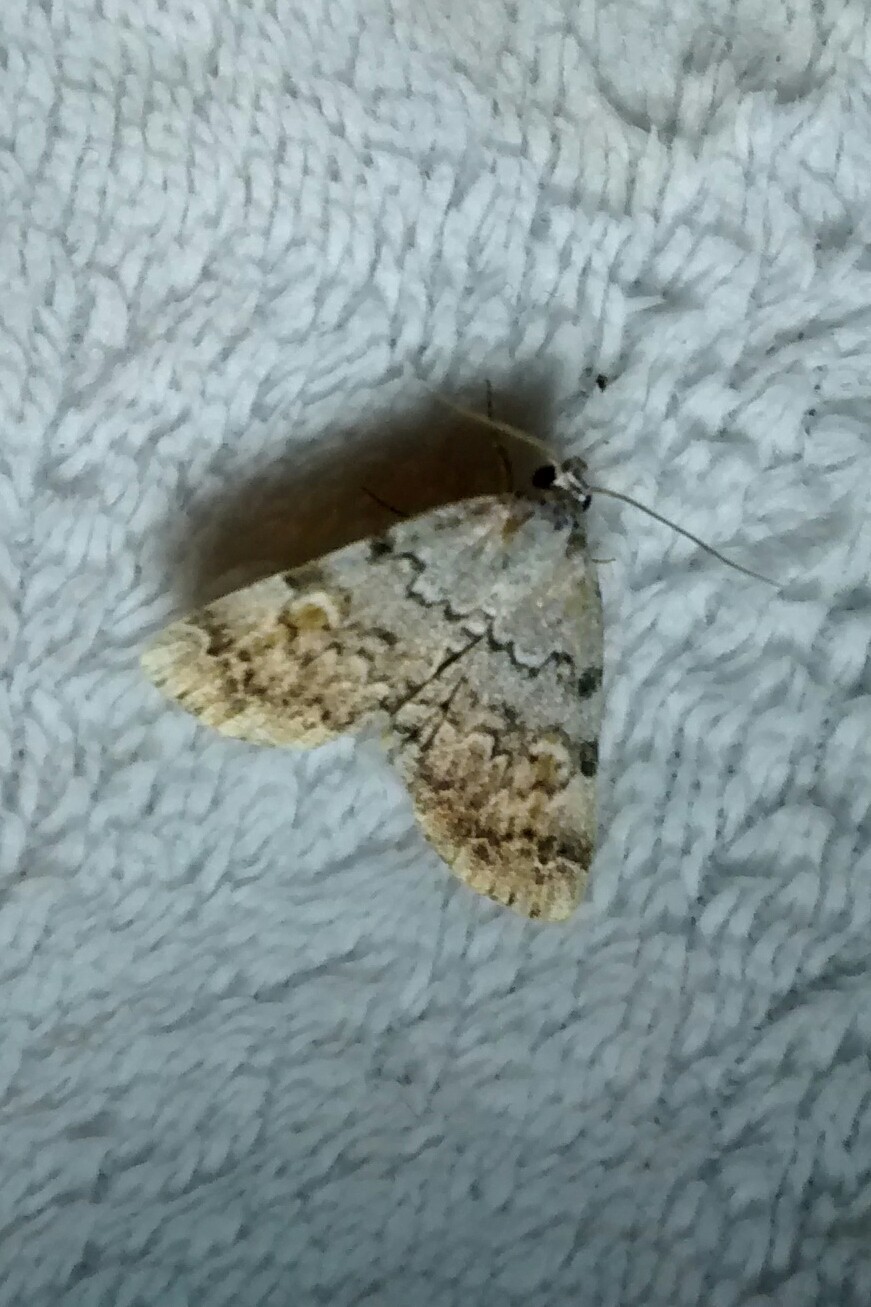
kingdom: Animalia
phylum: Arthropoda
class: Insecta
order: Lepidoptera
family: Erebidae
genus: Idia
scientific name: Idia americalis
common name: American idia moth
